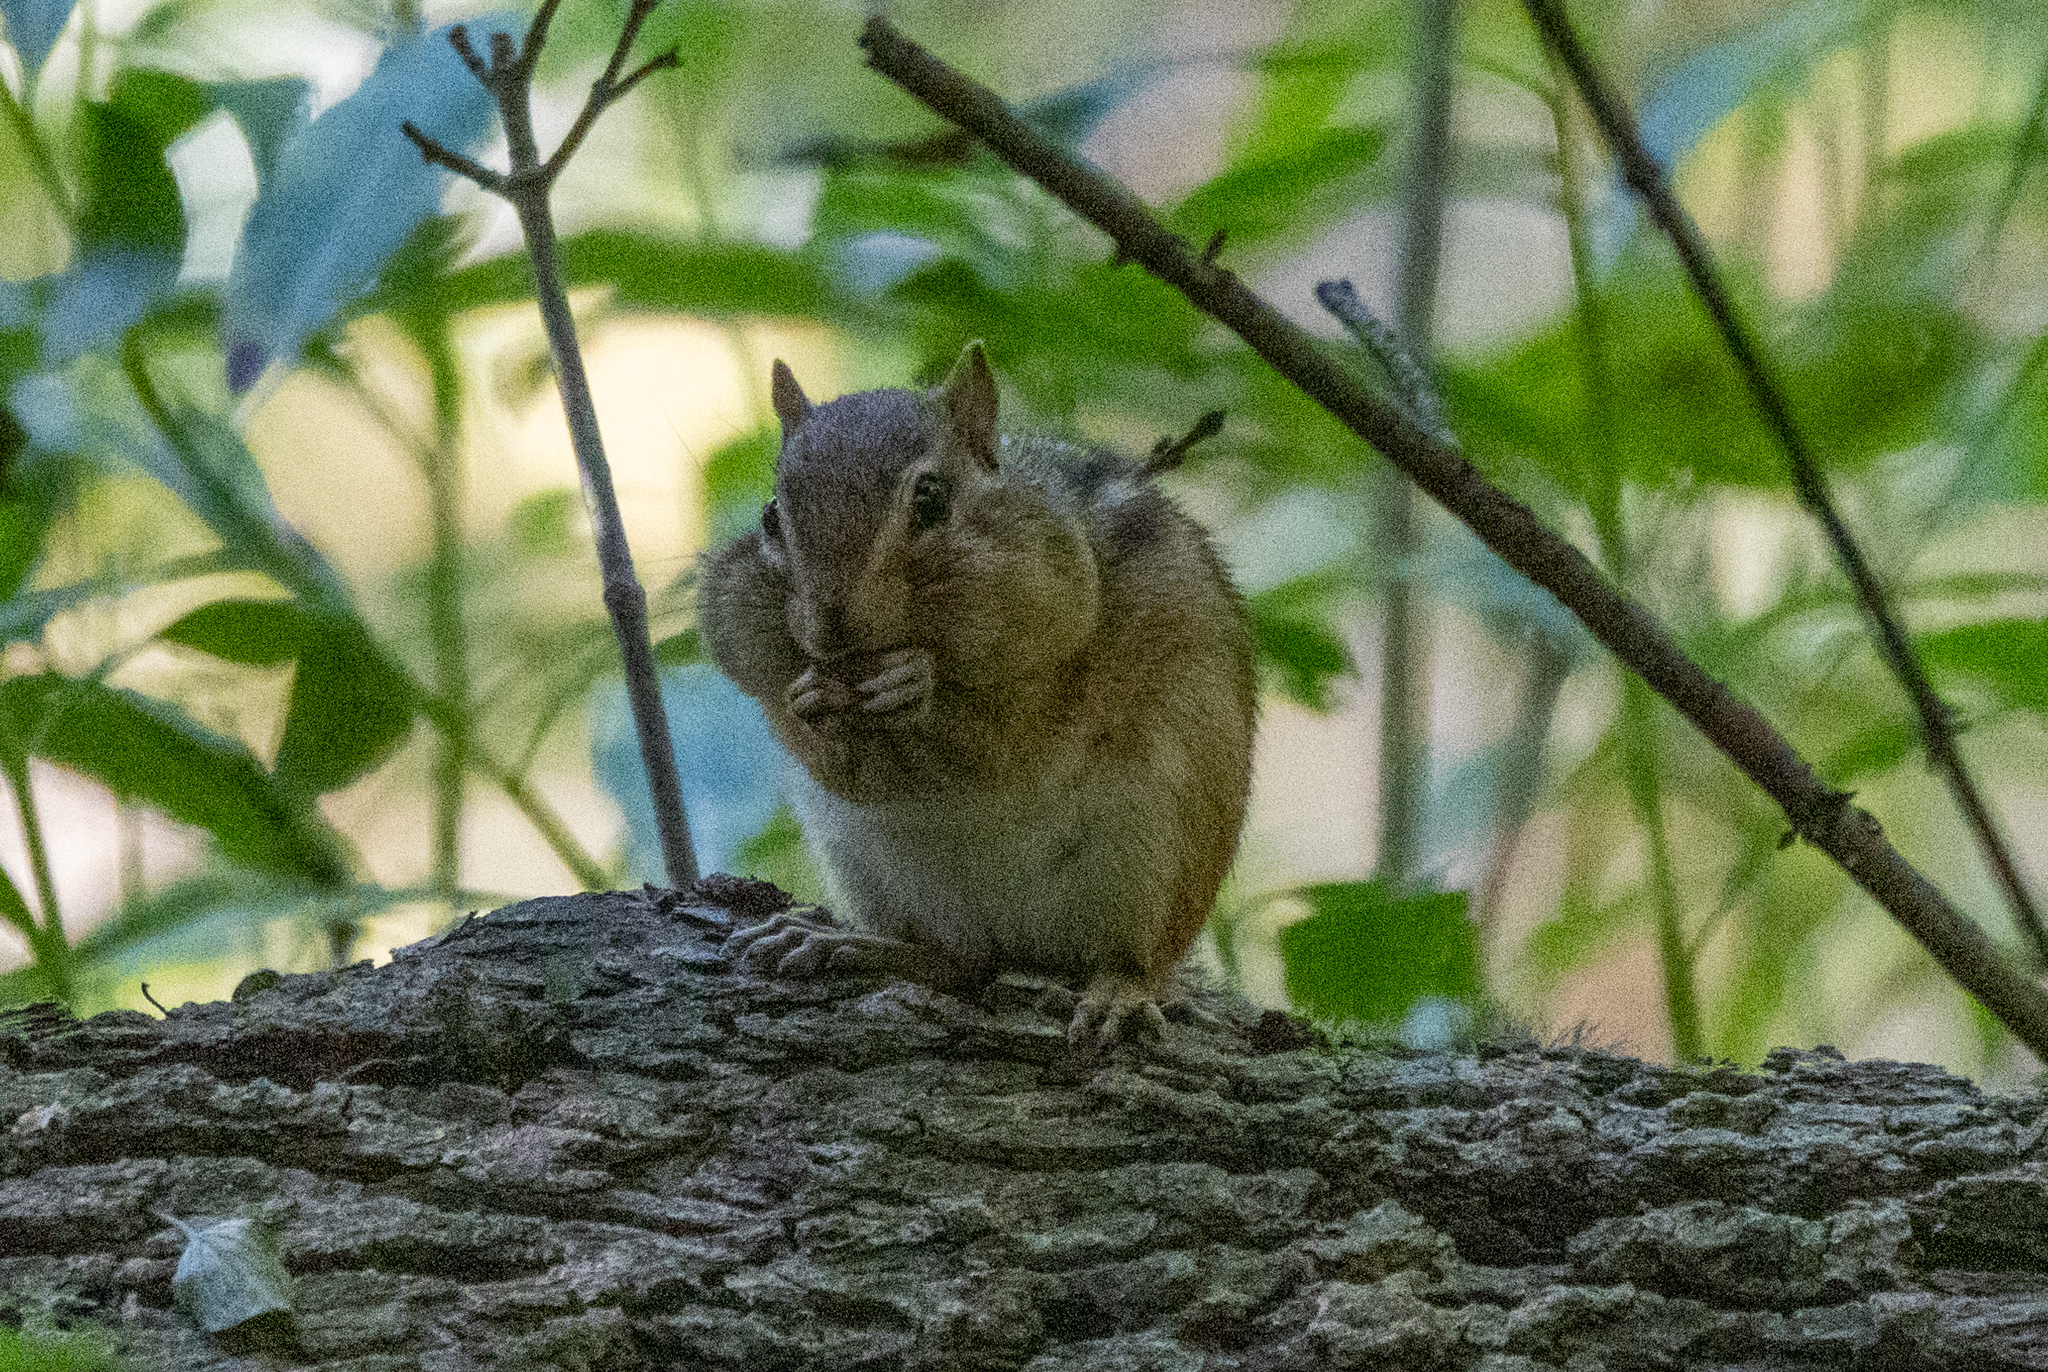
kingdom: Animalia
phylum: Chordata
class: Mammalia
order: Rodentia
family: Sciuridae
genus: Tamias
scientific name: Tamias striatus
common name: Eastern chipmunk
